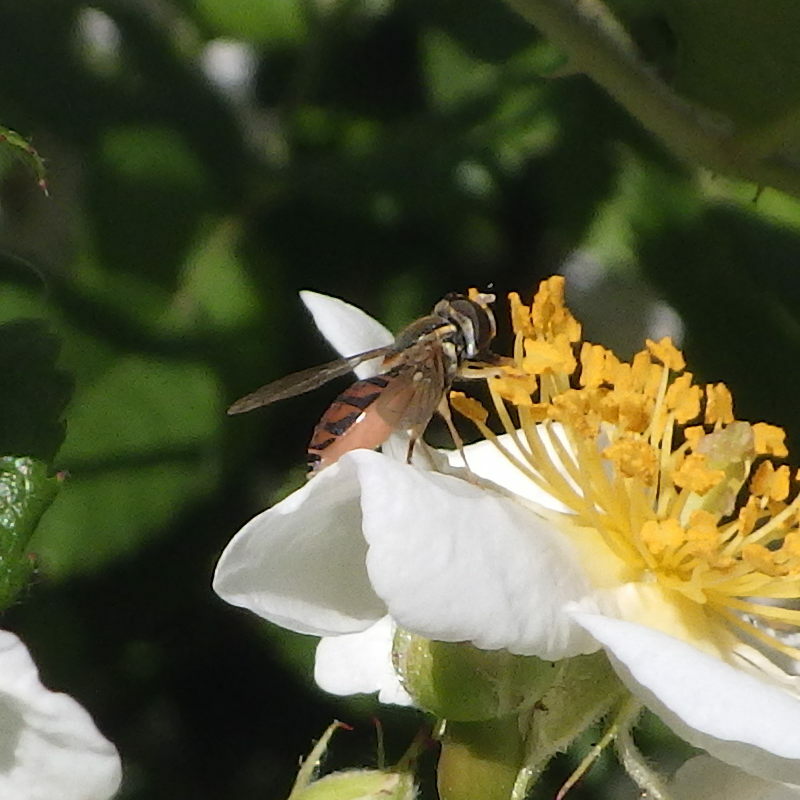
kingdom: Animalia
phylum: Arthropoda
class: Insecta
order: Diptera
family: Syrphidae
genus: Toxomerus
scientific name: Toxomerus marginatus
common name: Syrphid fly
